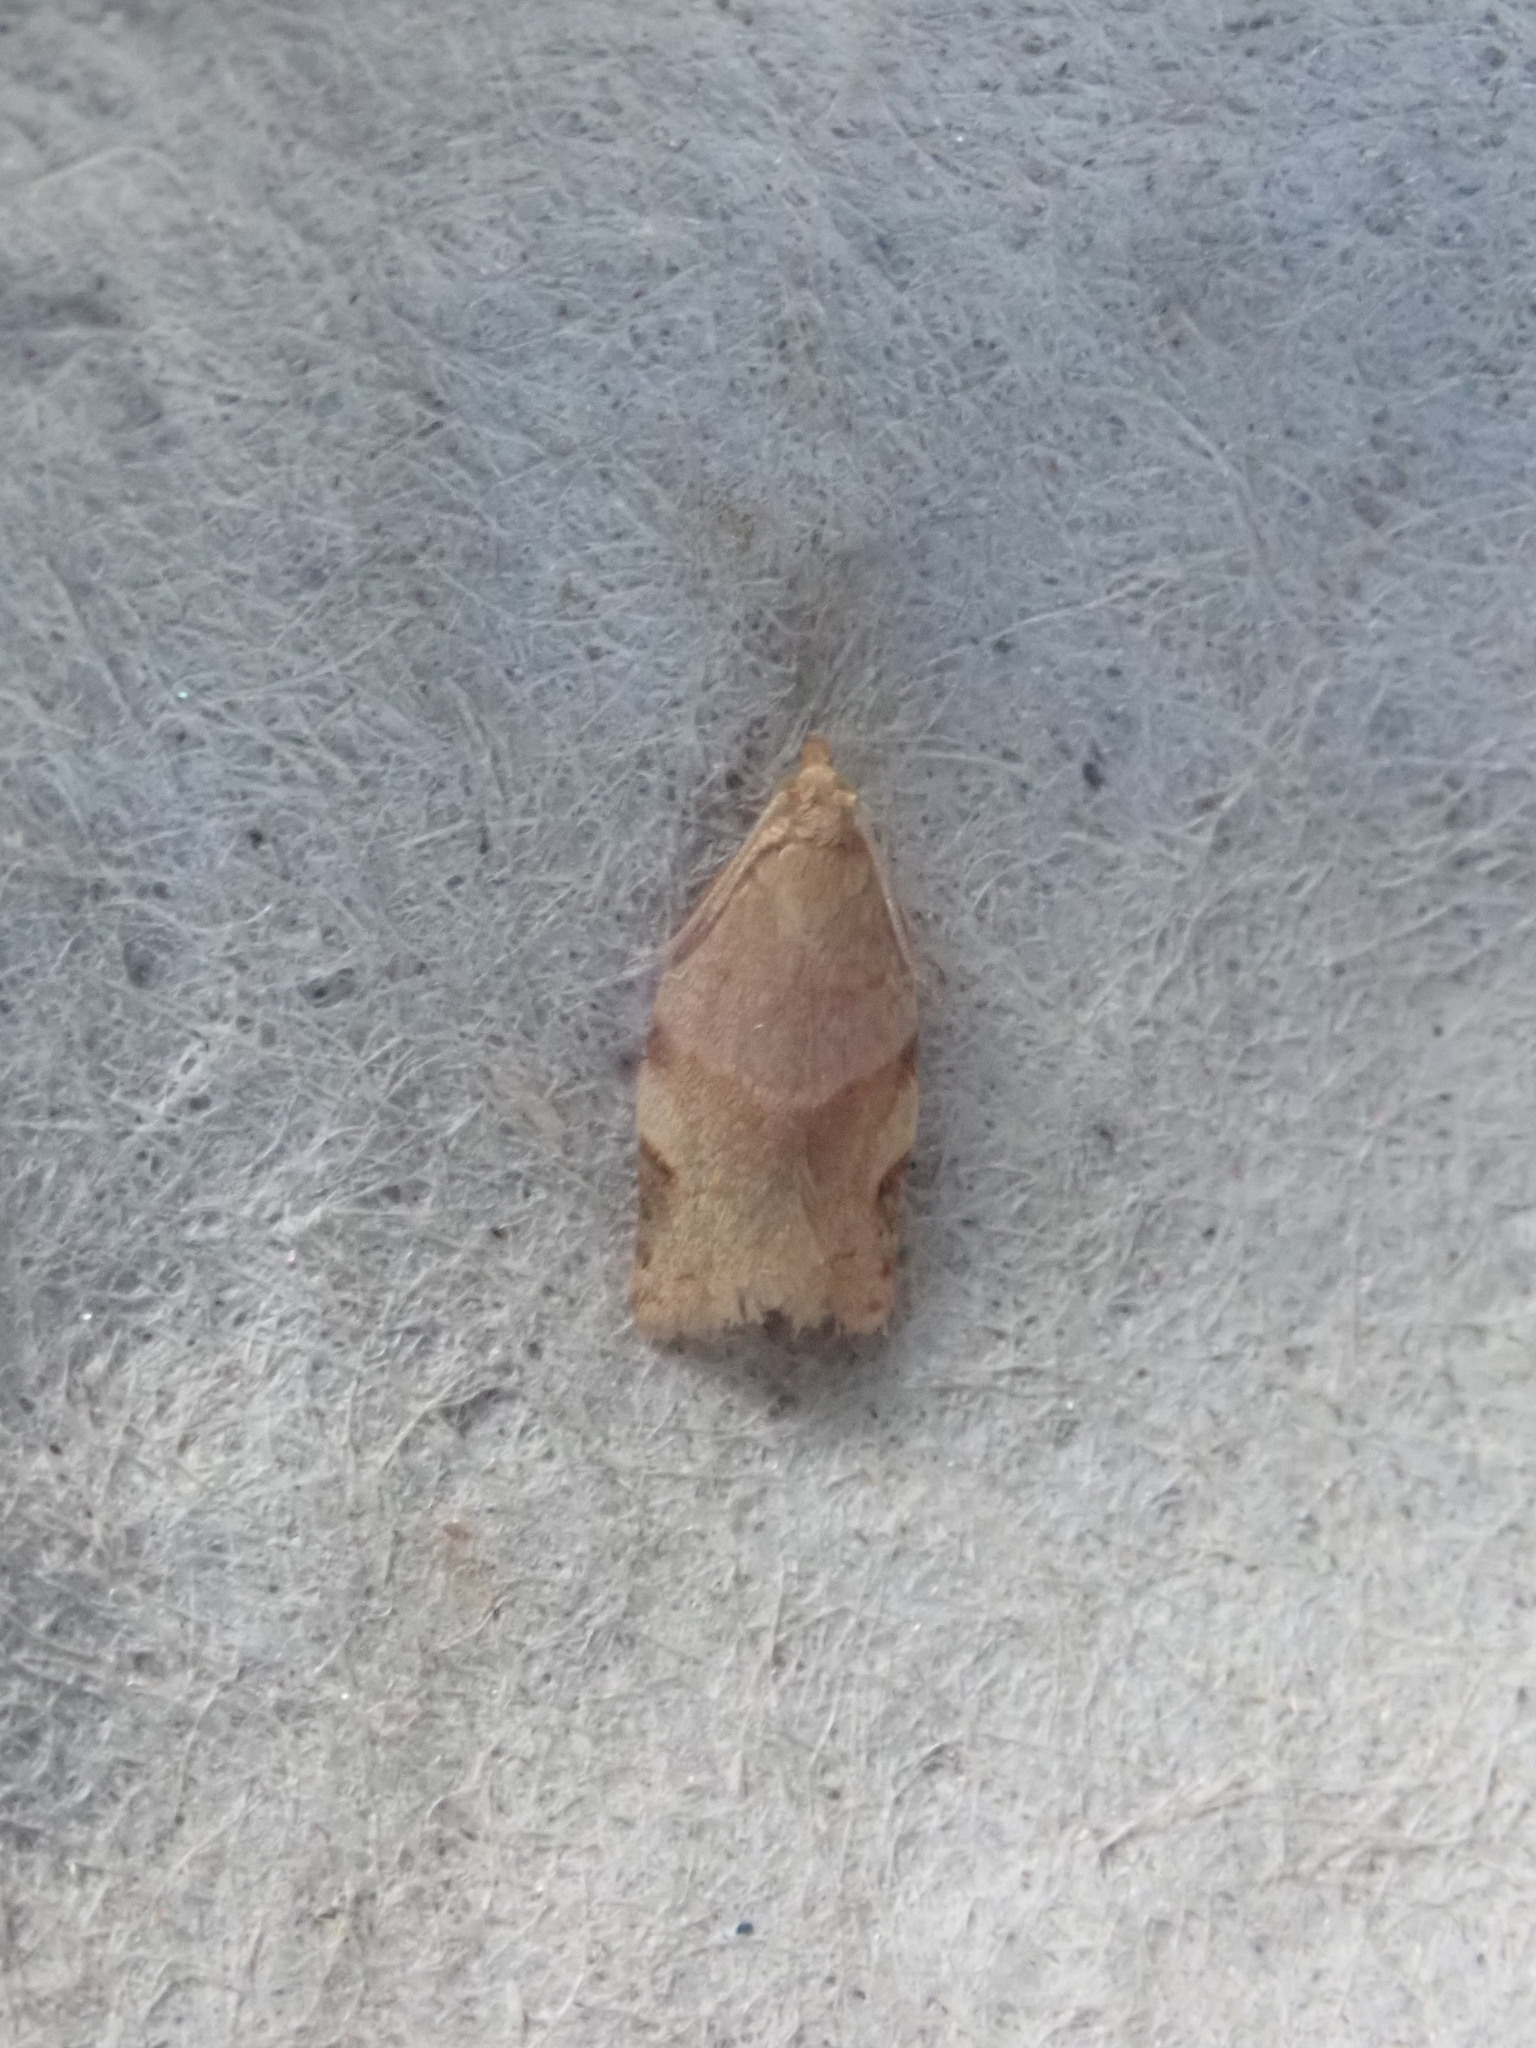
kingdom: Animalia
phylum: Arthropoda
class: Insecta
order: Lepidoptera
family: Tortricidae
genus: Clepsis
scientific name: Clepsis virescana
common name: Greenish apple moth
